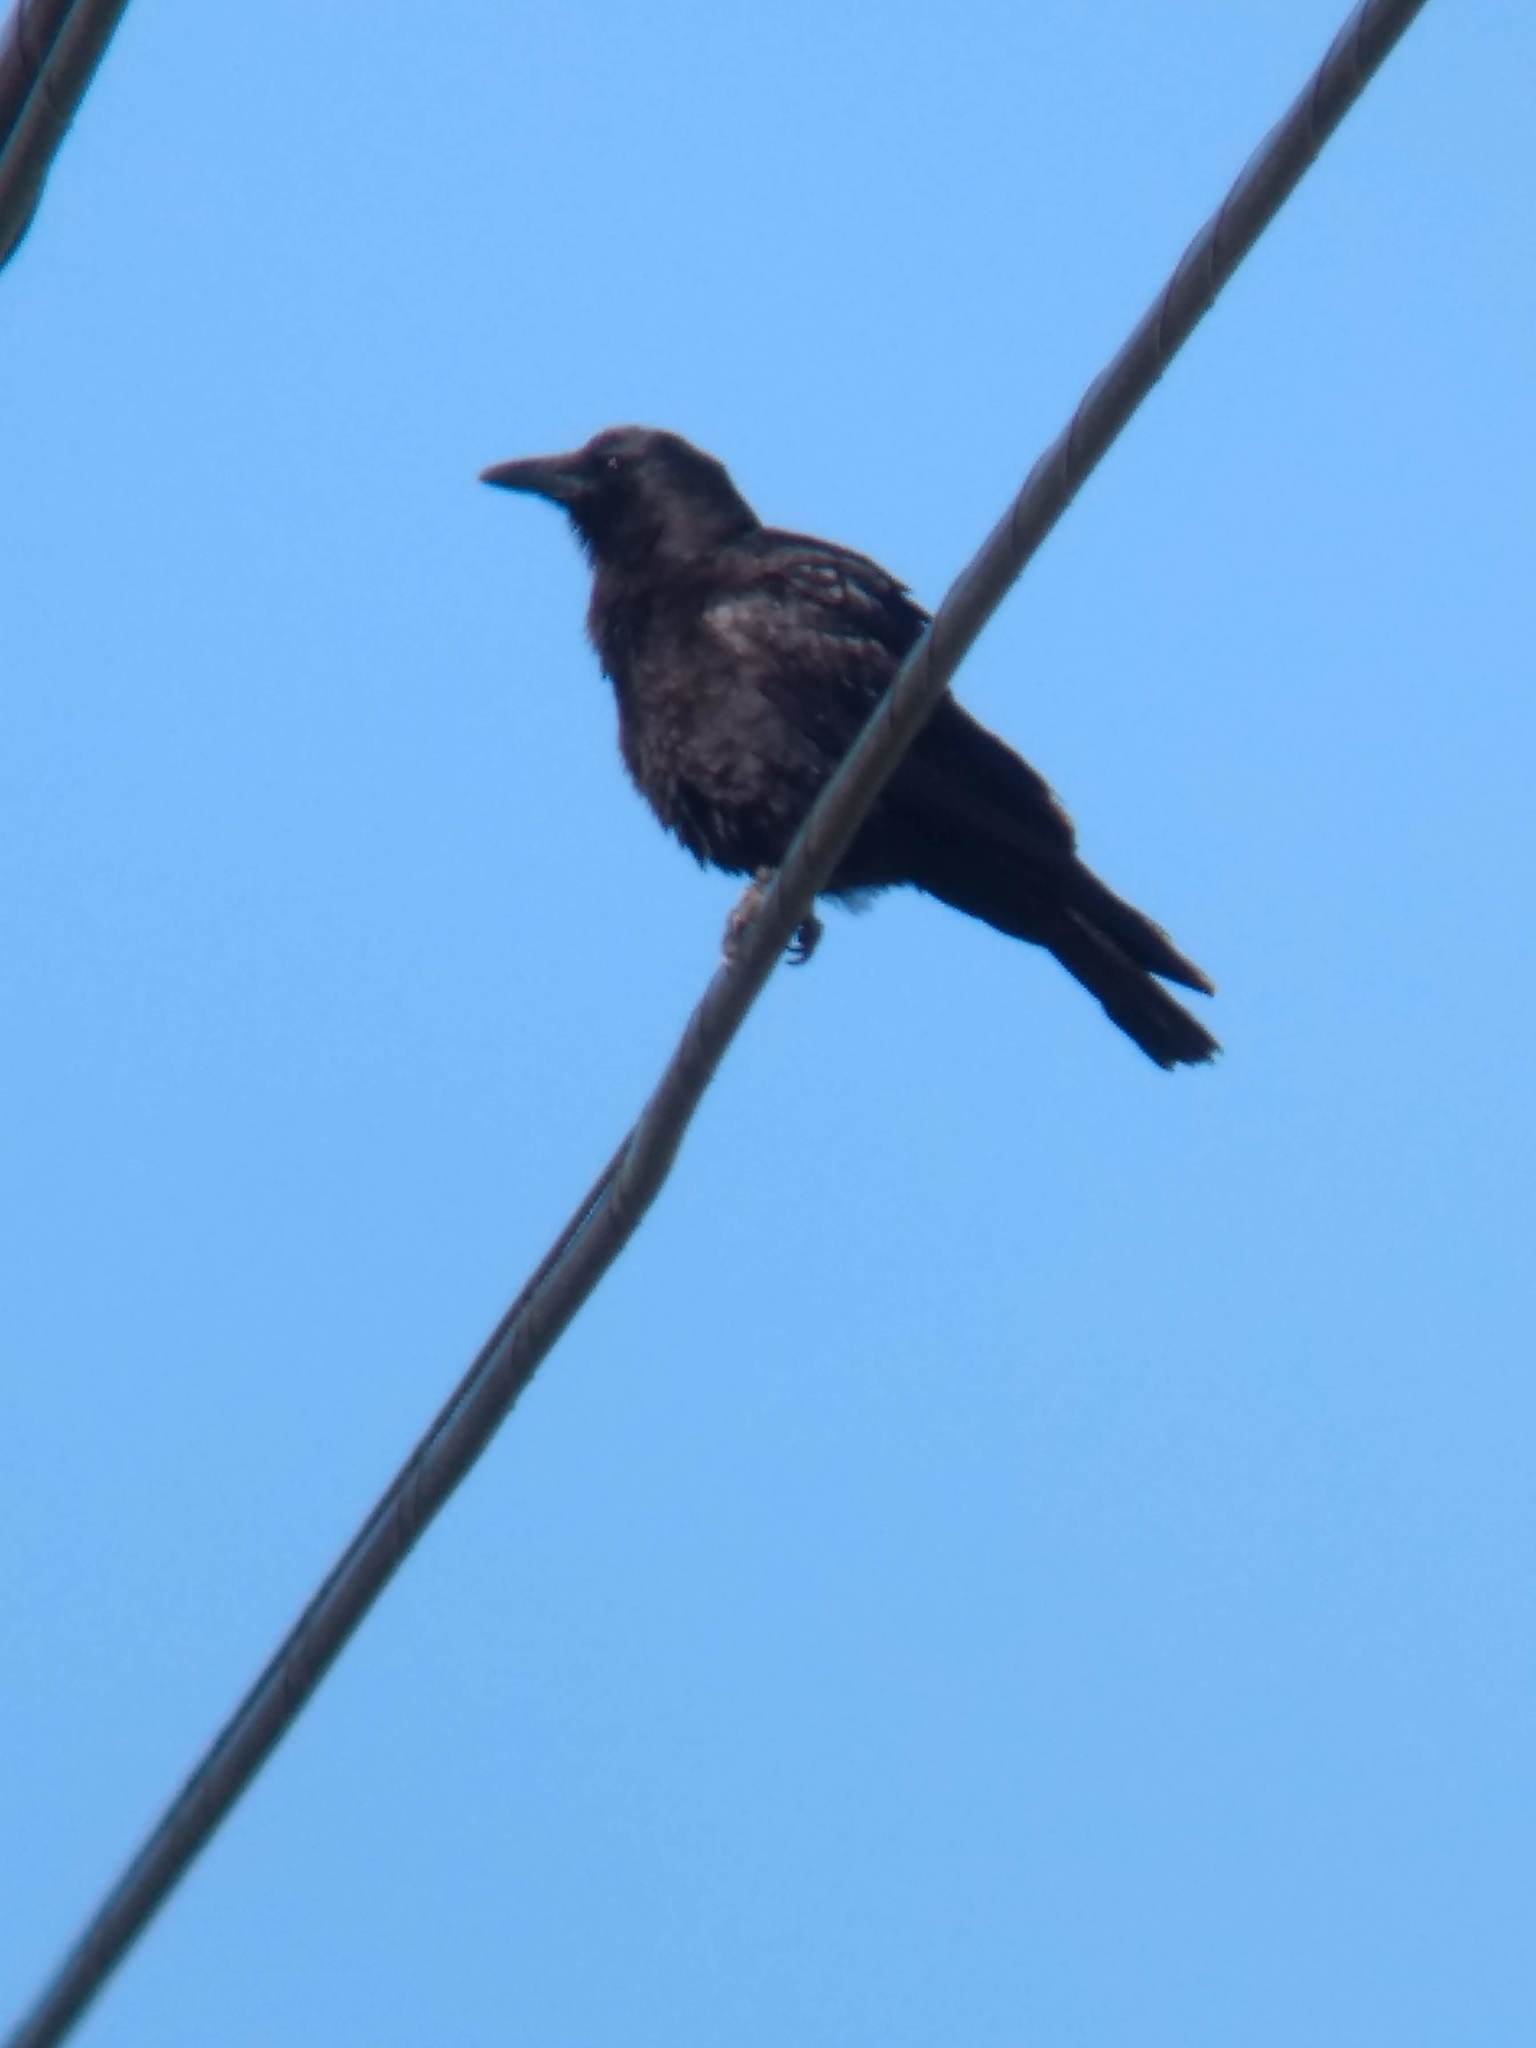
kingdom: Animalia
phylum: Chordata
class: Aves
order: Passeriformes
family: Corvidae
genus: Corvus
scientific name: Corvus brachyrhynchos
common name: American crow
